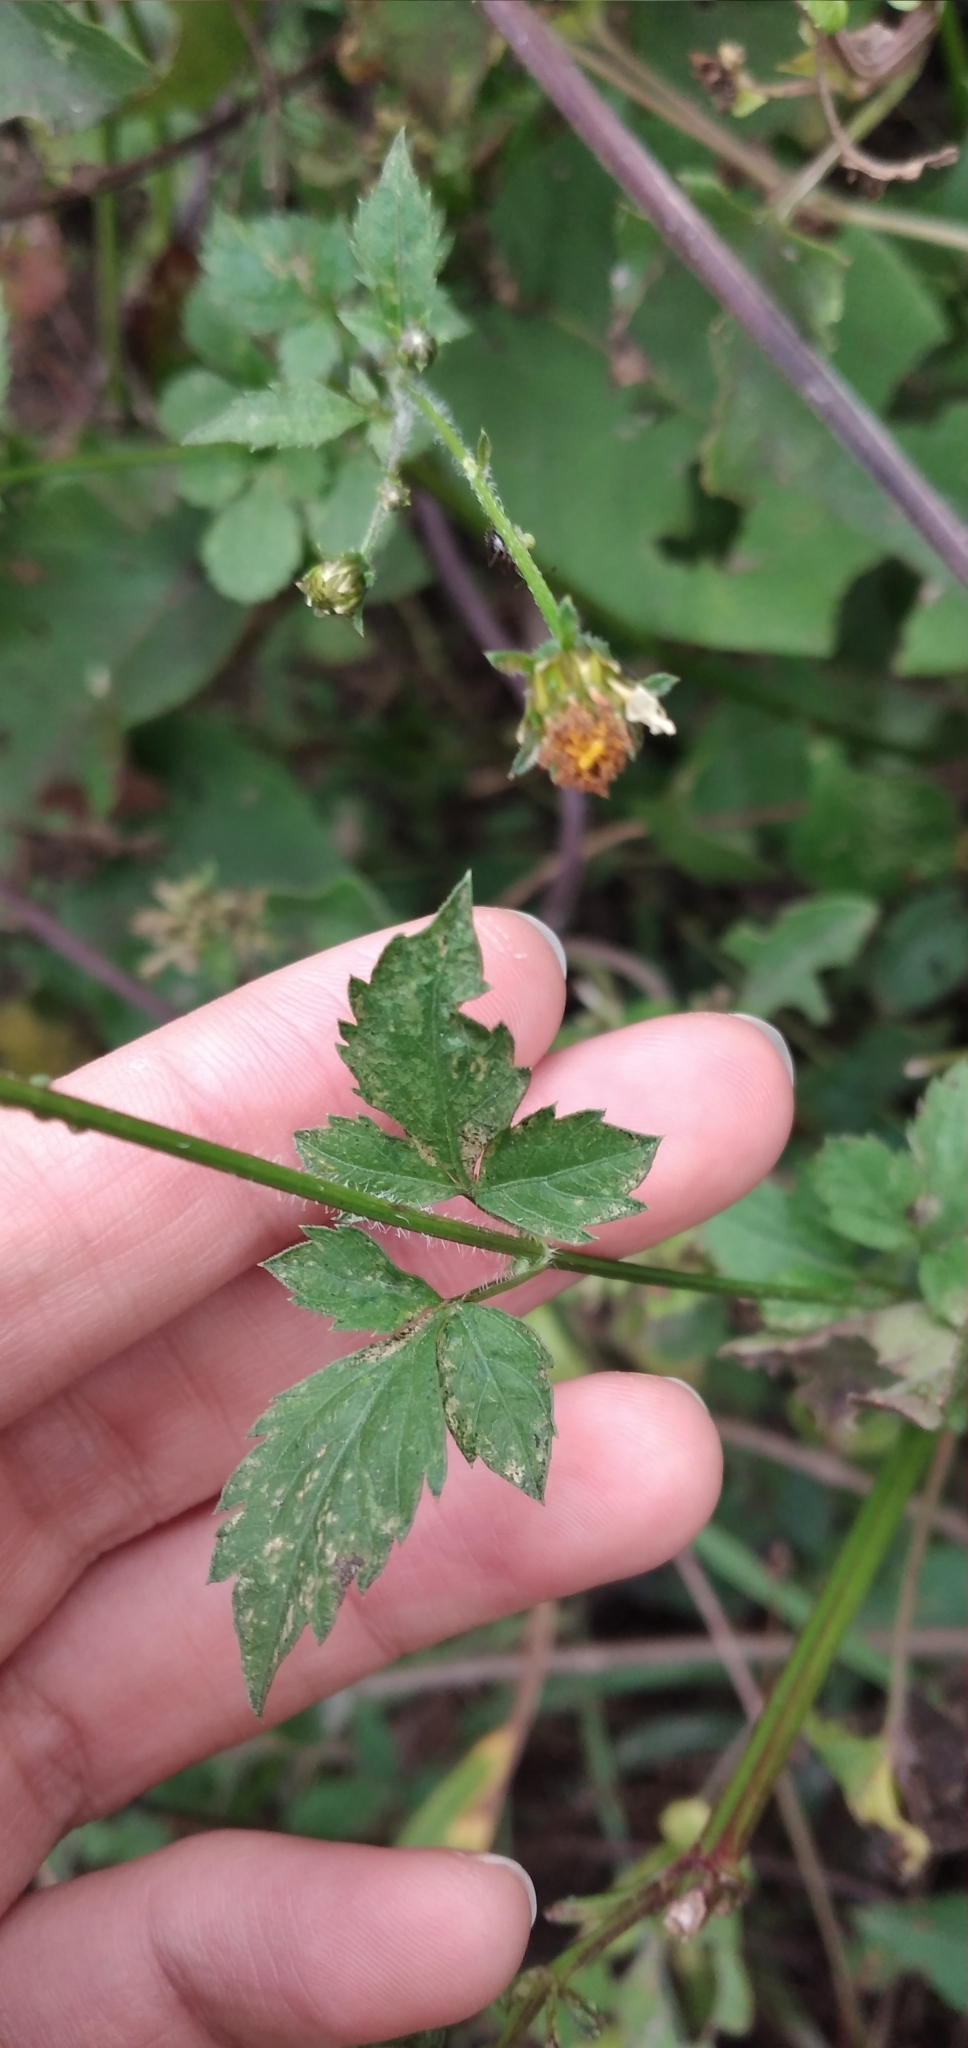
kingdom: Plantae
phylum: Tracheophyta
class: Magnoliopsida
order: Asterales
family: Asteraceae
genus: Bidens
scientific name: Bidens pilosa
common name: Black-jack
